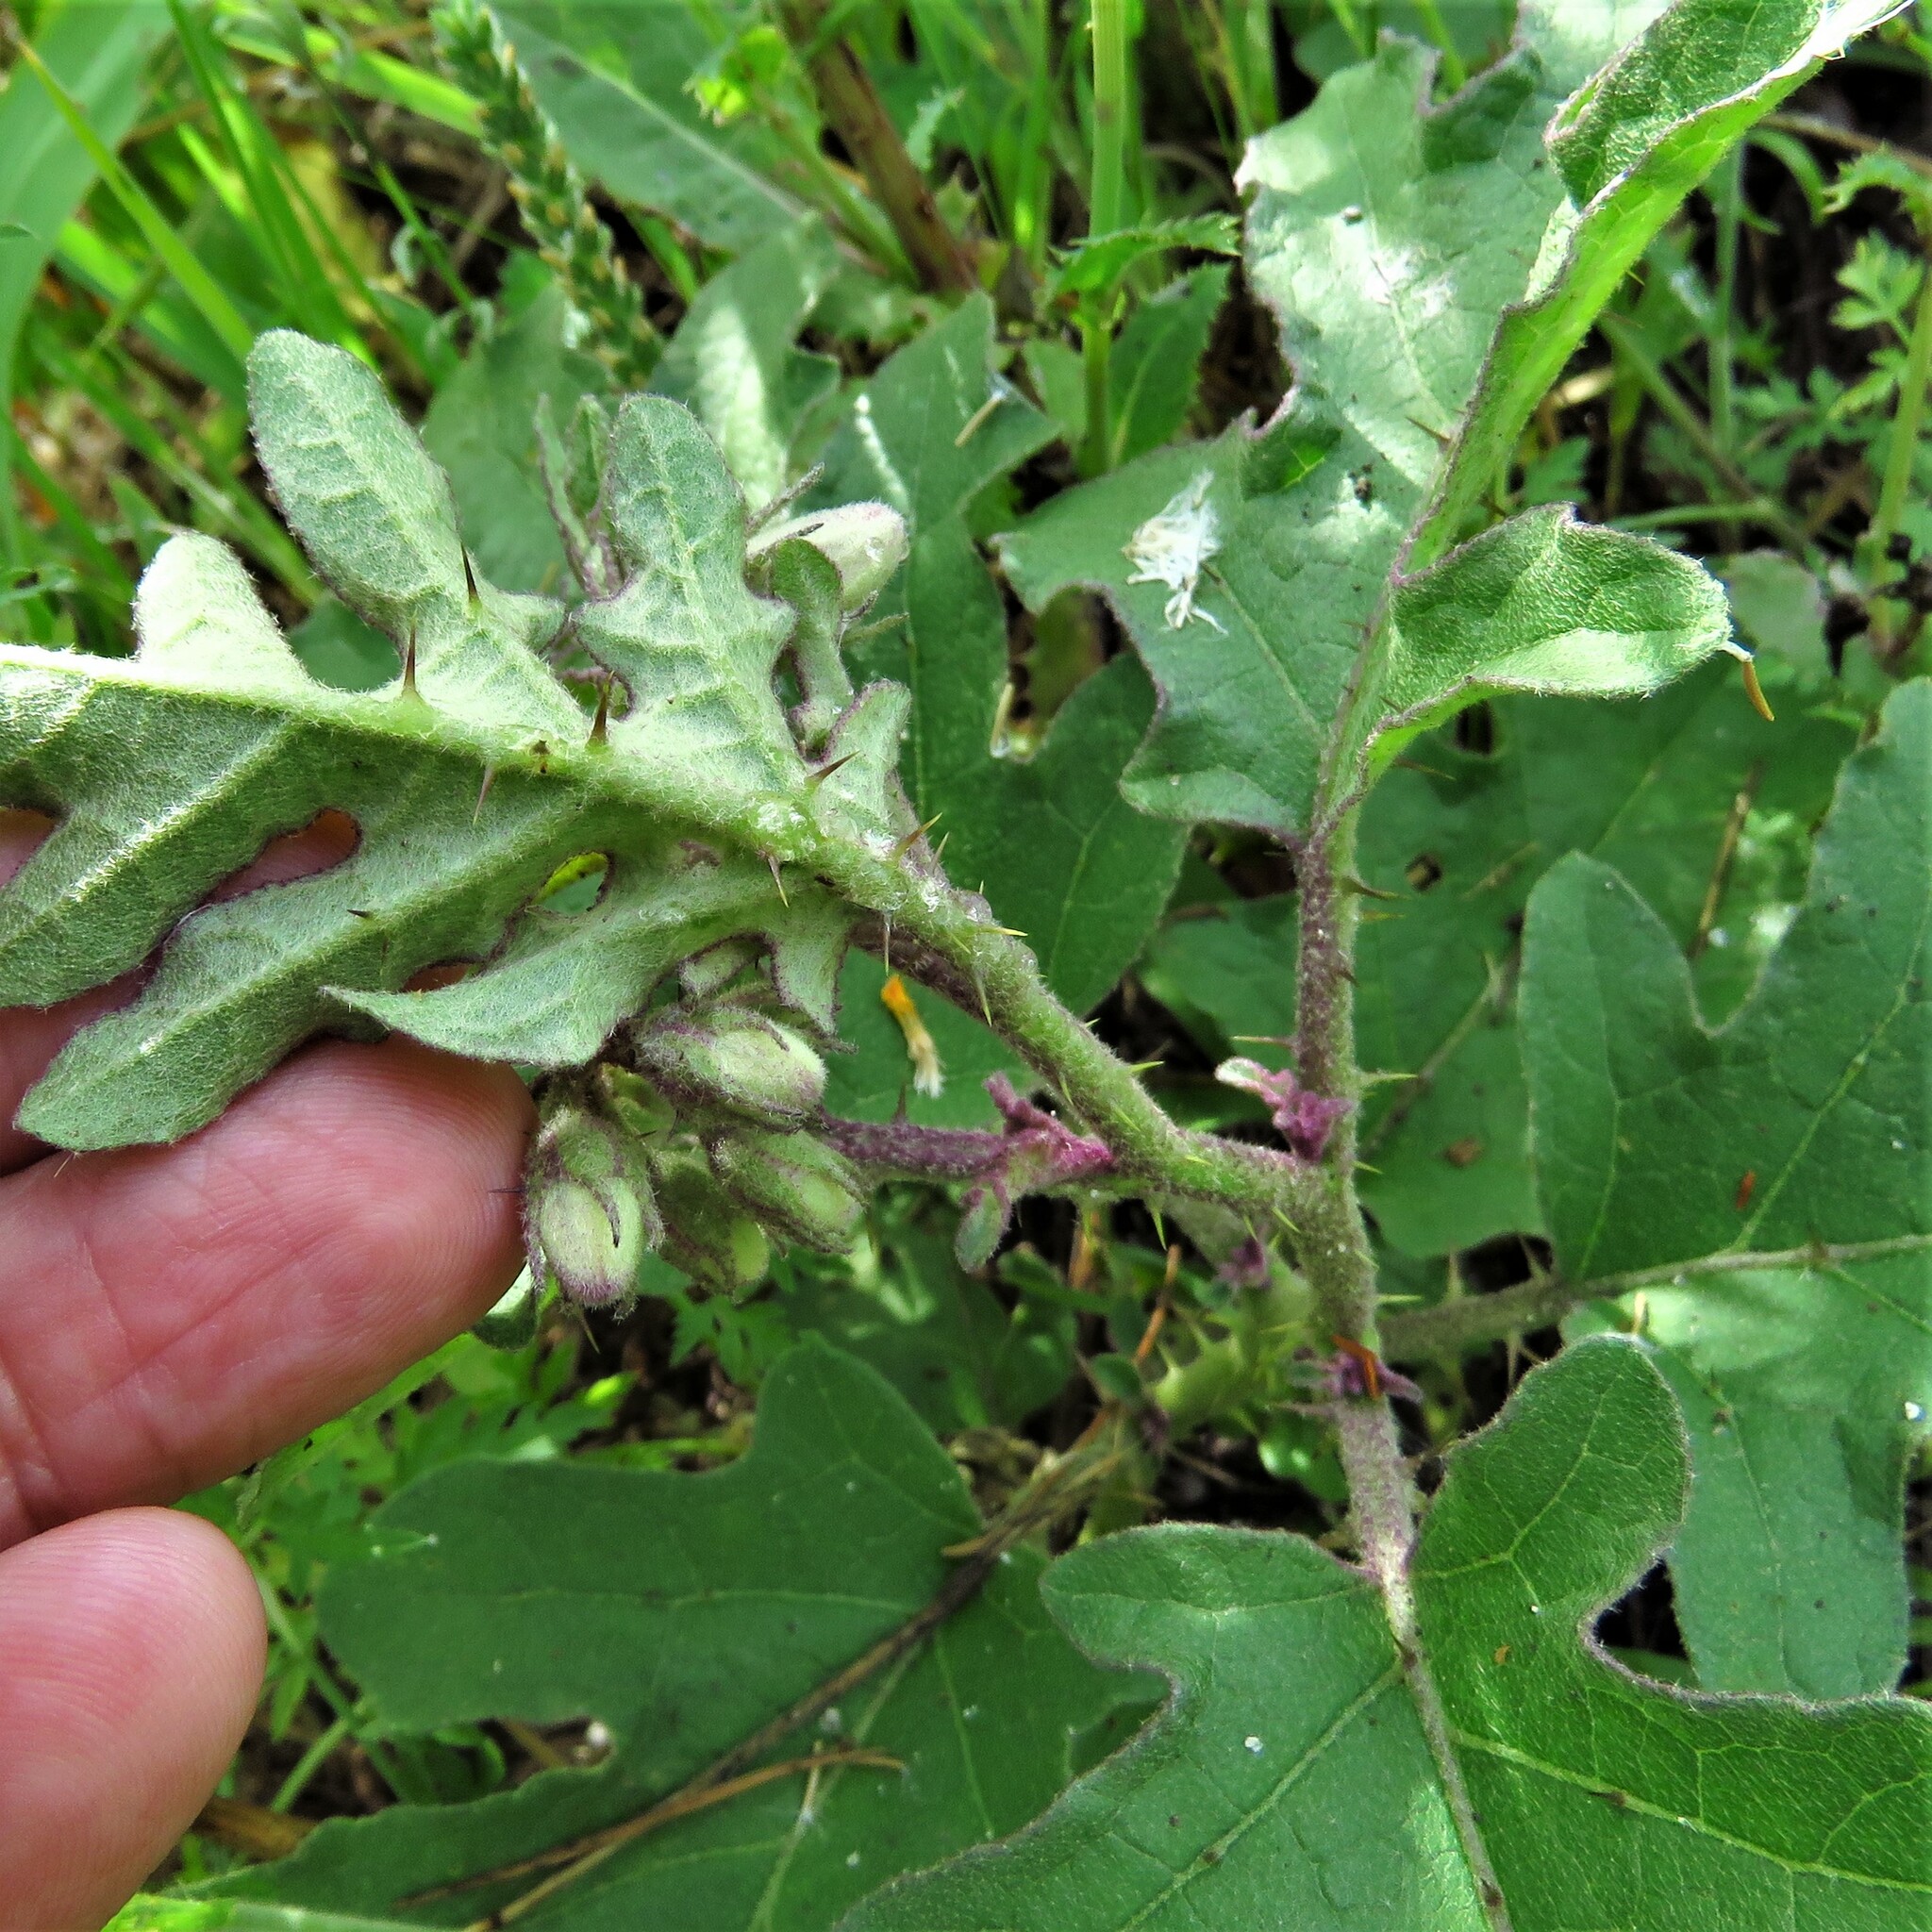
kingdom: Plantae
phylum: Tracheophyta
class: Magnoliopsida
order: Solanales
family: Solanaceae
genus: Solanum
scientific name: Solanum dimidiatum
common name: Carolina horse-nettle
